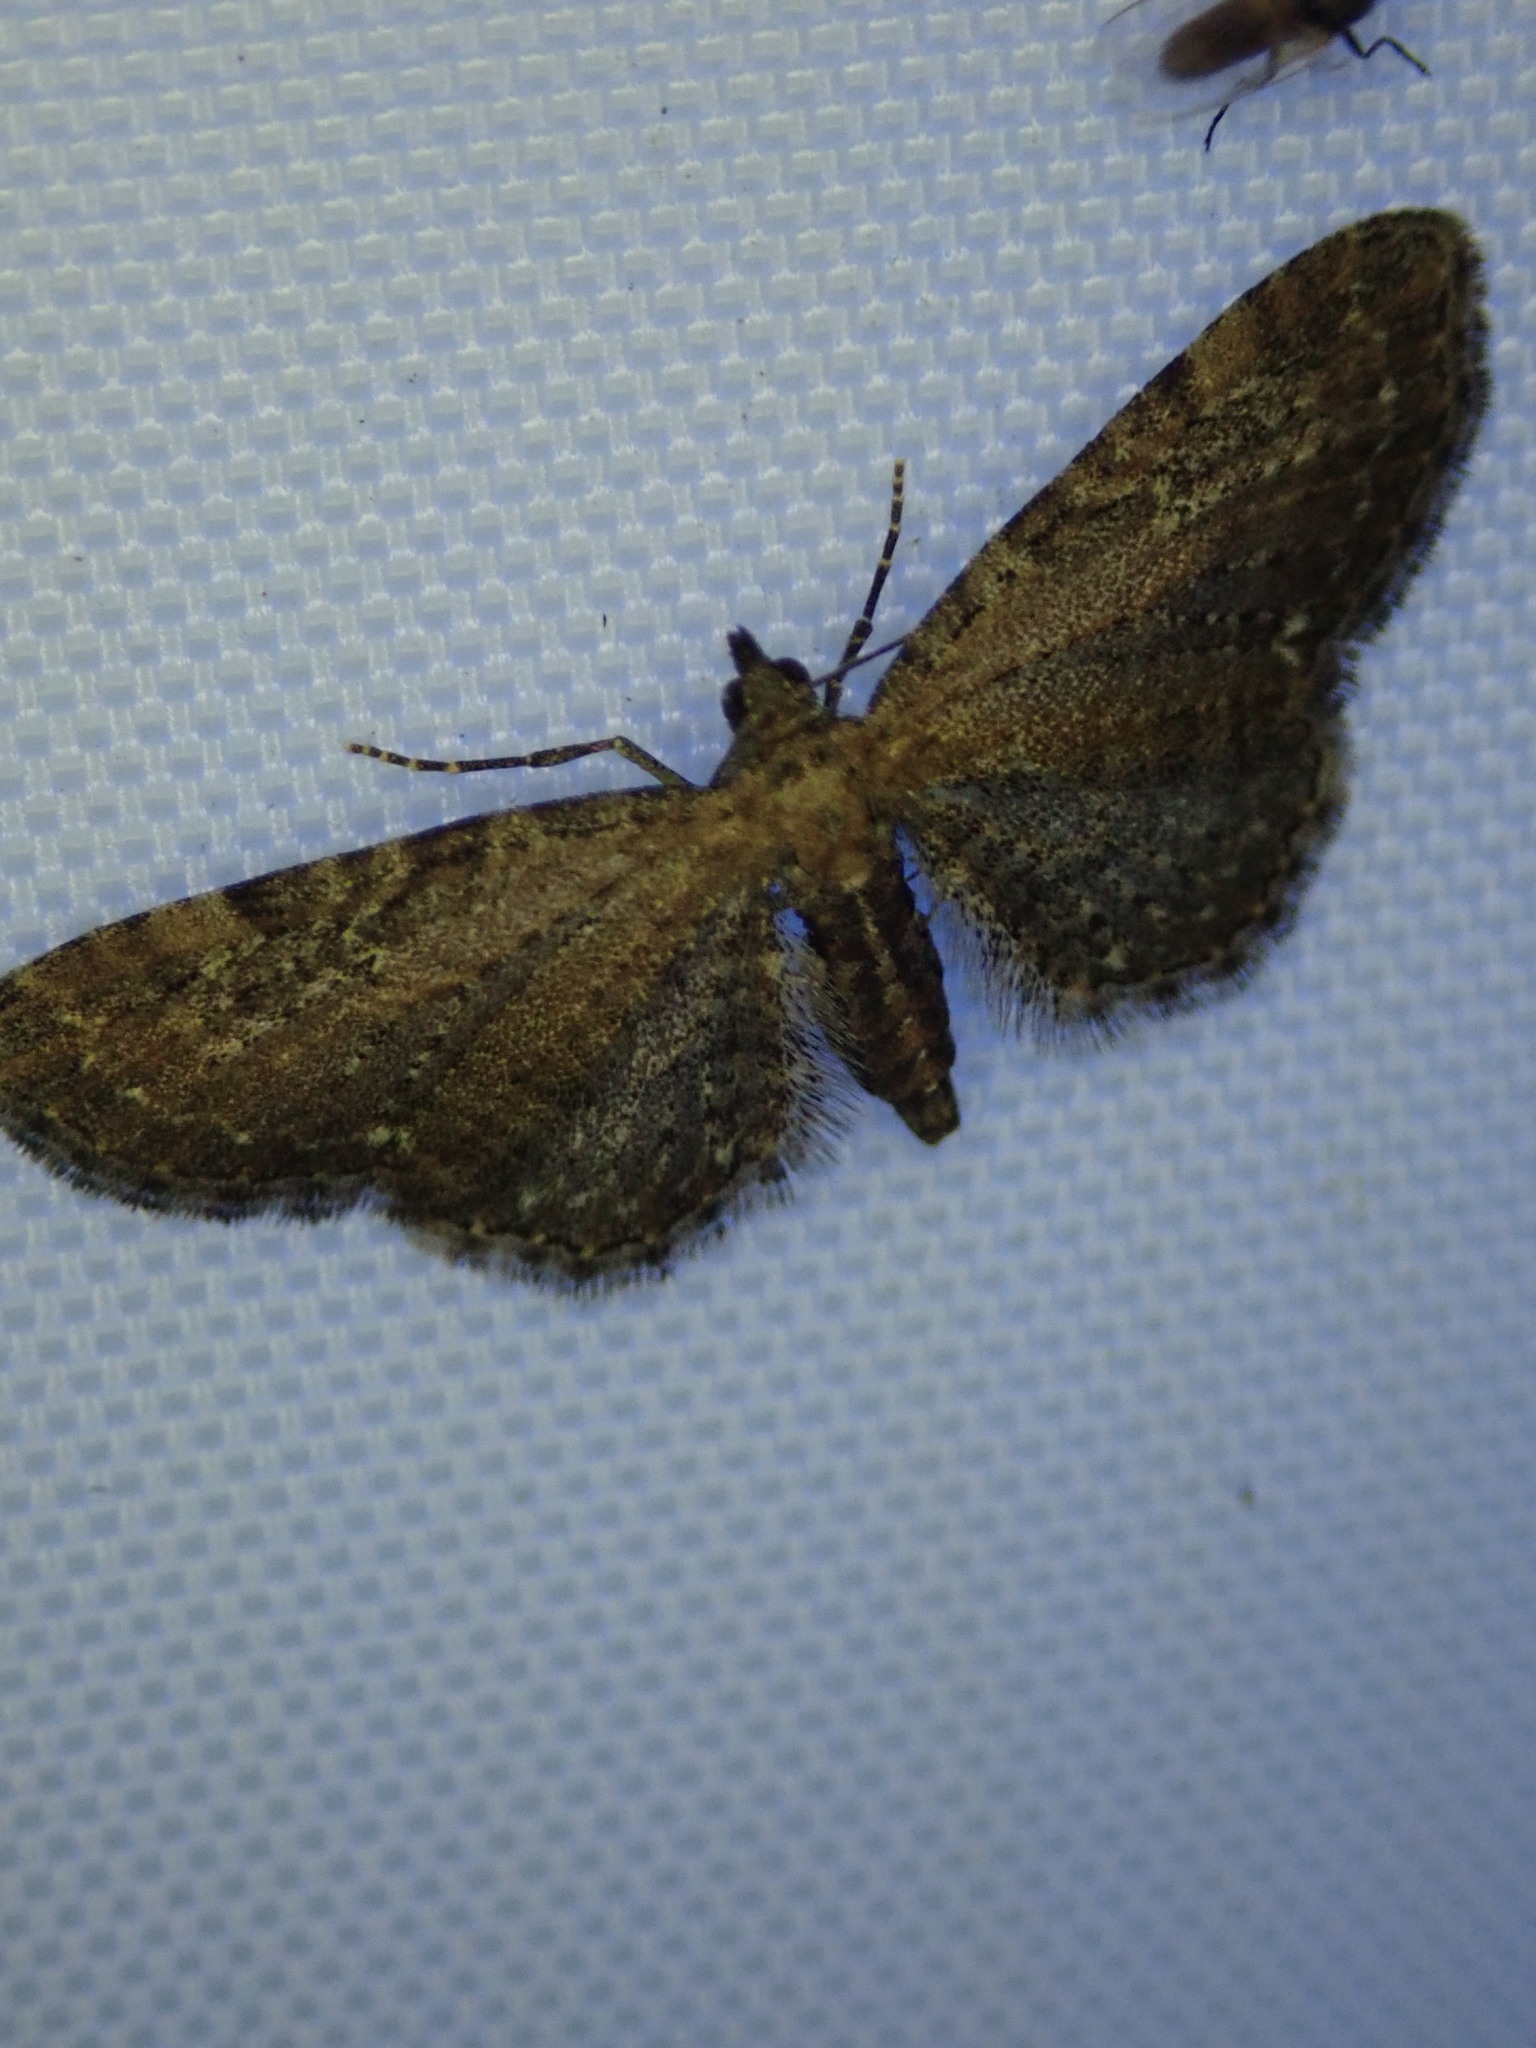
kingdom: Animalia
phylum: Arthropoda
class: Insecta
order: Lepidoptera
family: Geometridae
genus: Eupithecia
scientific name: Eupithecia vulgata
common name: Common pug
